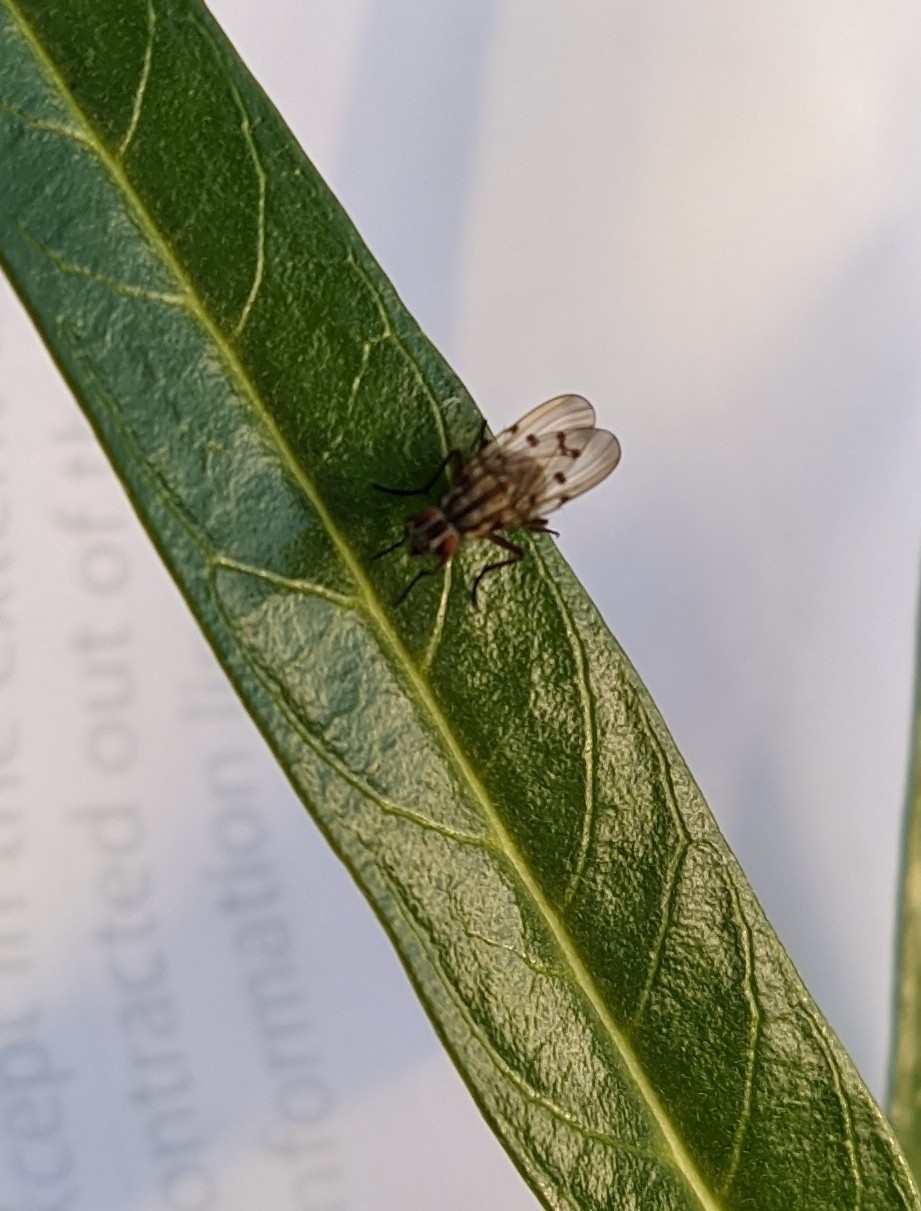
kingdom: Animalia
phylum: Arthropoda
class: Insecta
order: Diptera
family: Anthomyiidae
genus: Anthomyia
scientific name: Anthomyia punctipennis
